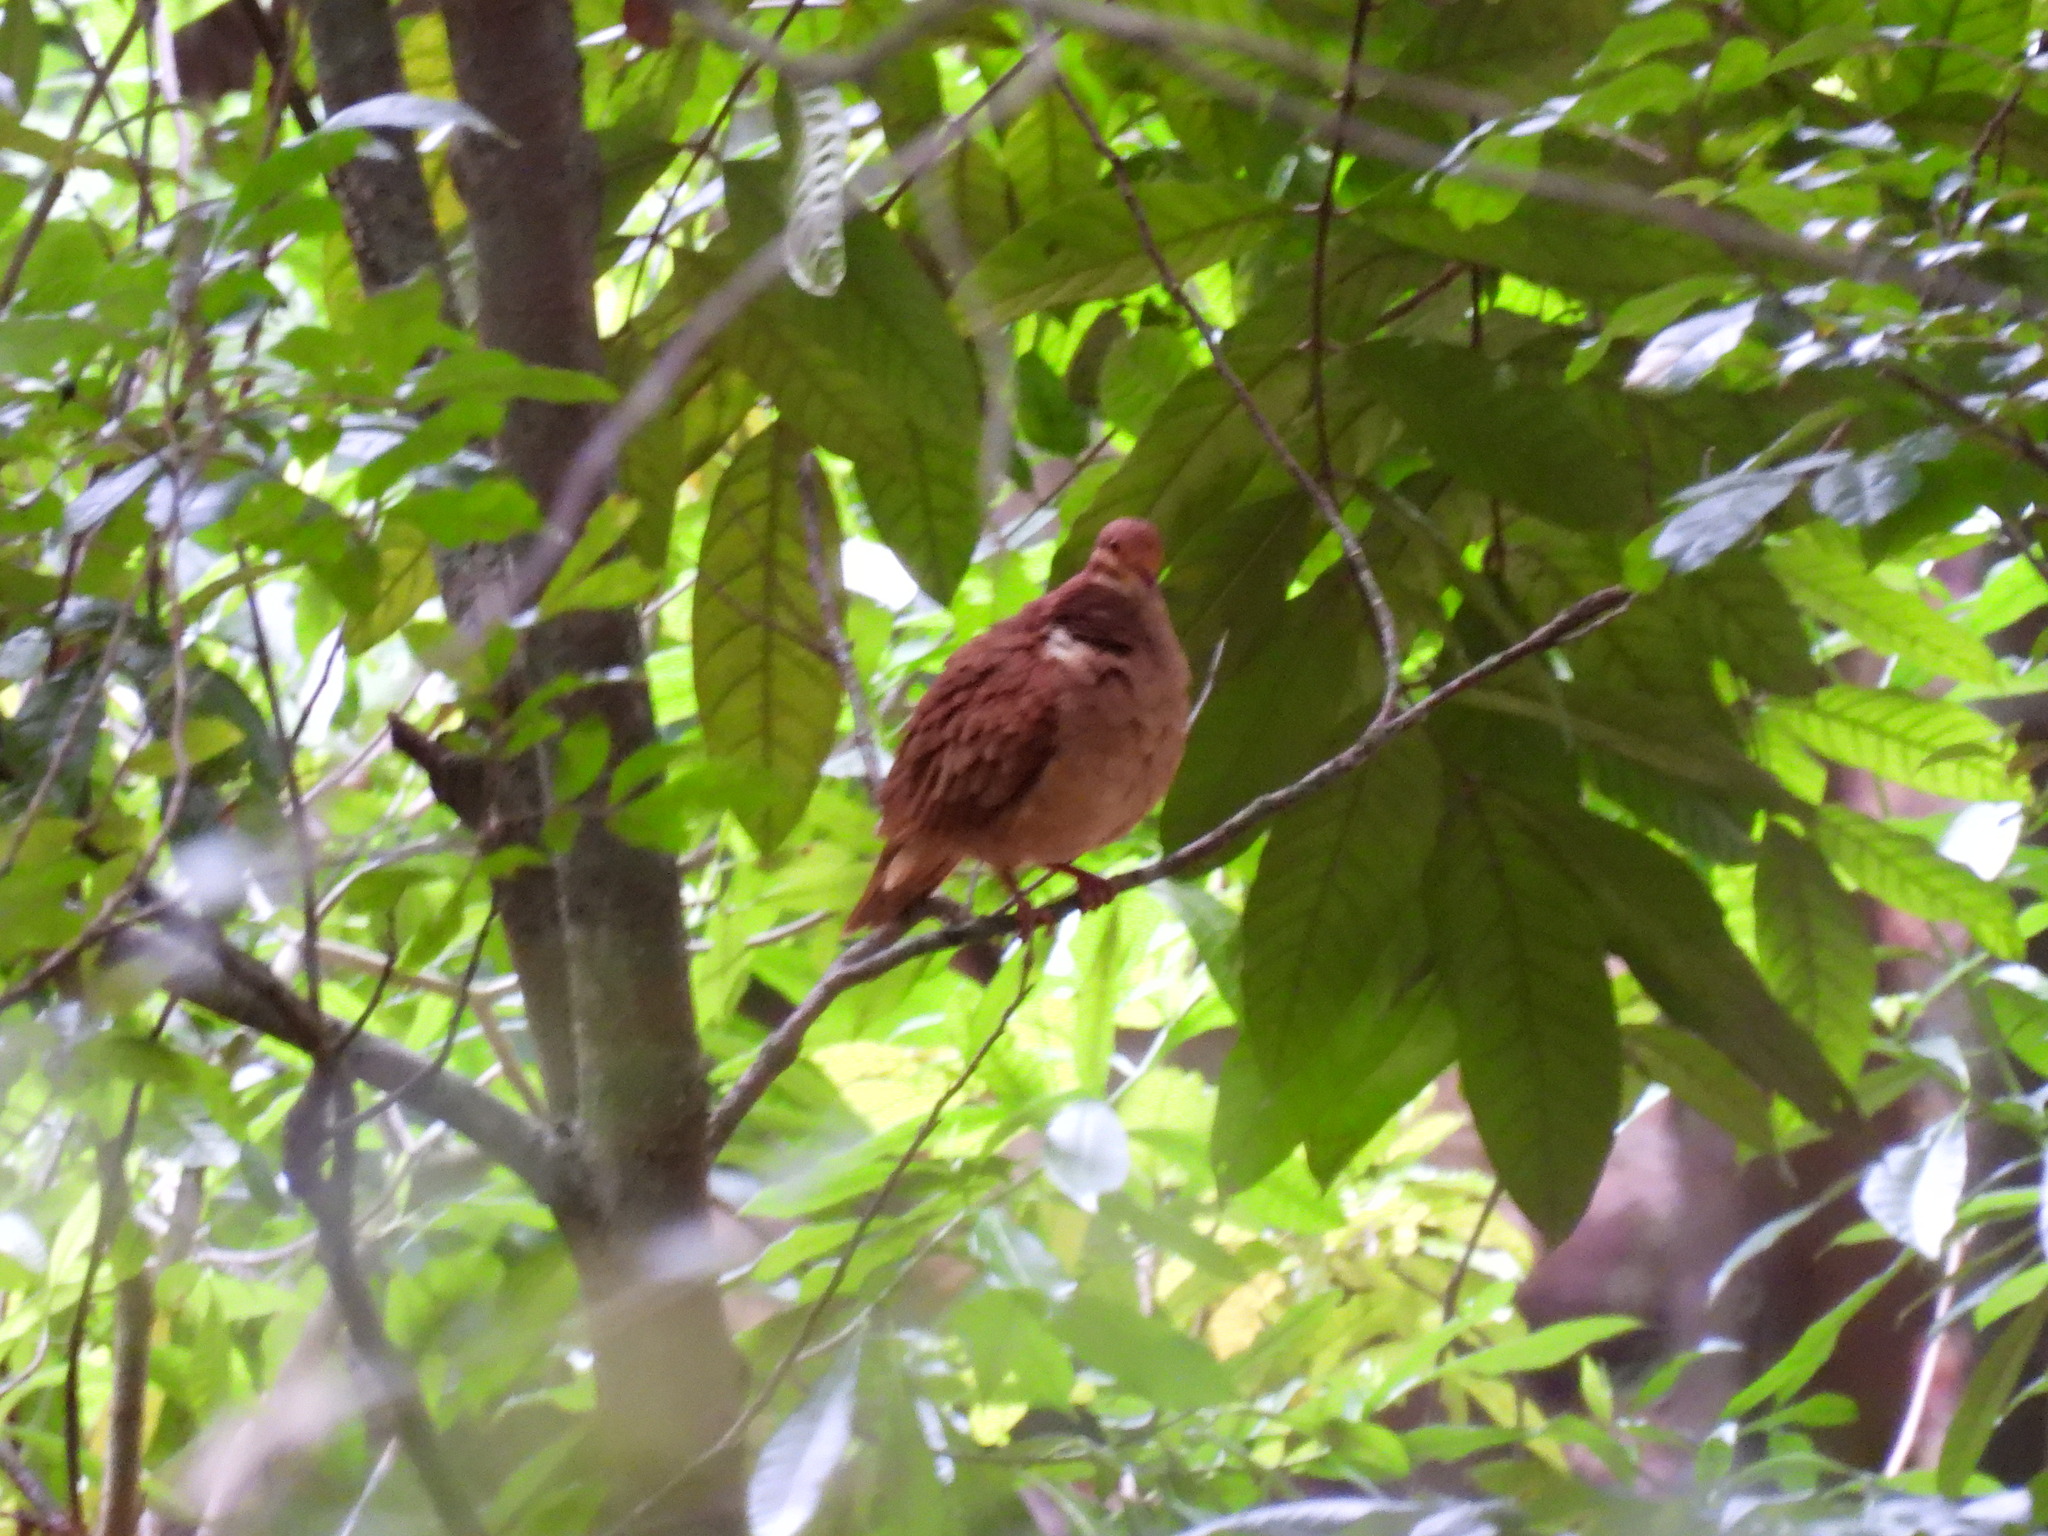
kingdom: Animalia
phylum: Chordata
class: Aves
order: Columbiformes
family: Columbidae
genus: Geotrygon
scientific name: Geotrygon montana
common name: Ruddy quail-dove
